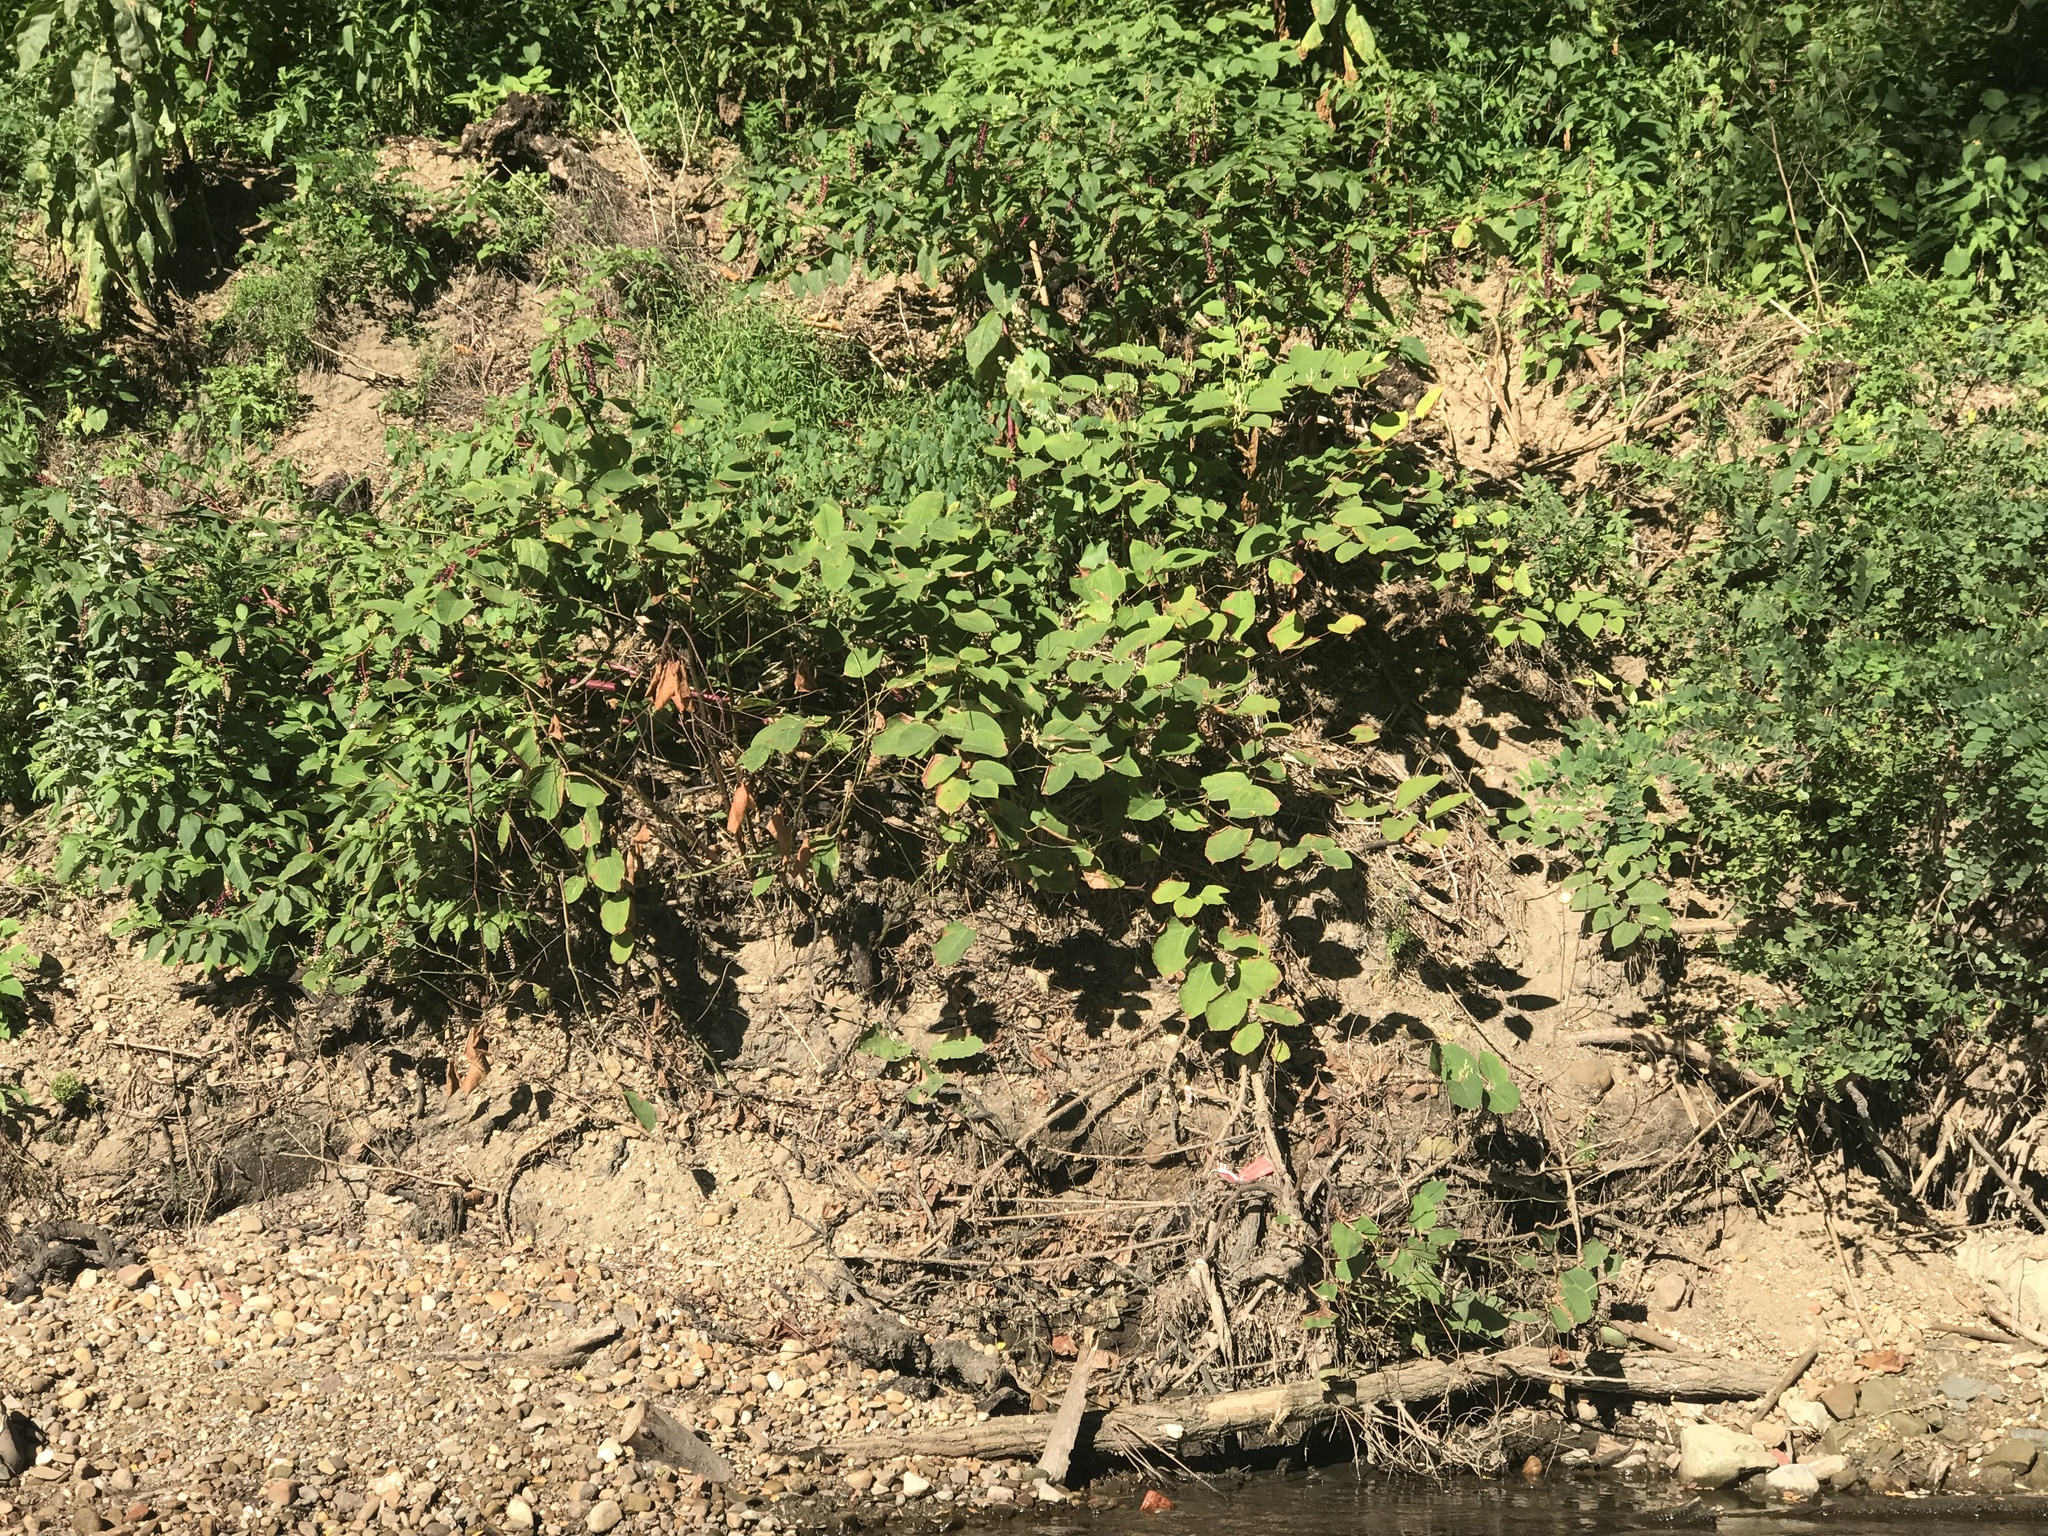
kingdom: Plantae
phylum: Tracheophyta
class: Magnoliopsida
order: Caryophyllales
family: Polygonaceae
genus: Reynoutria
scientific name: Reynoutria japonica
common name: Japanese knotweed
